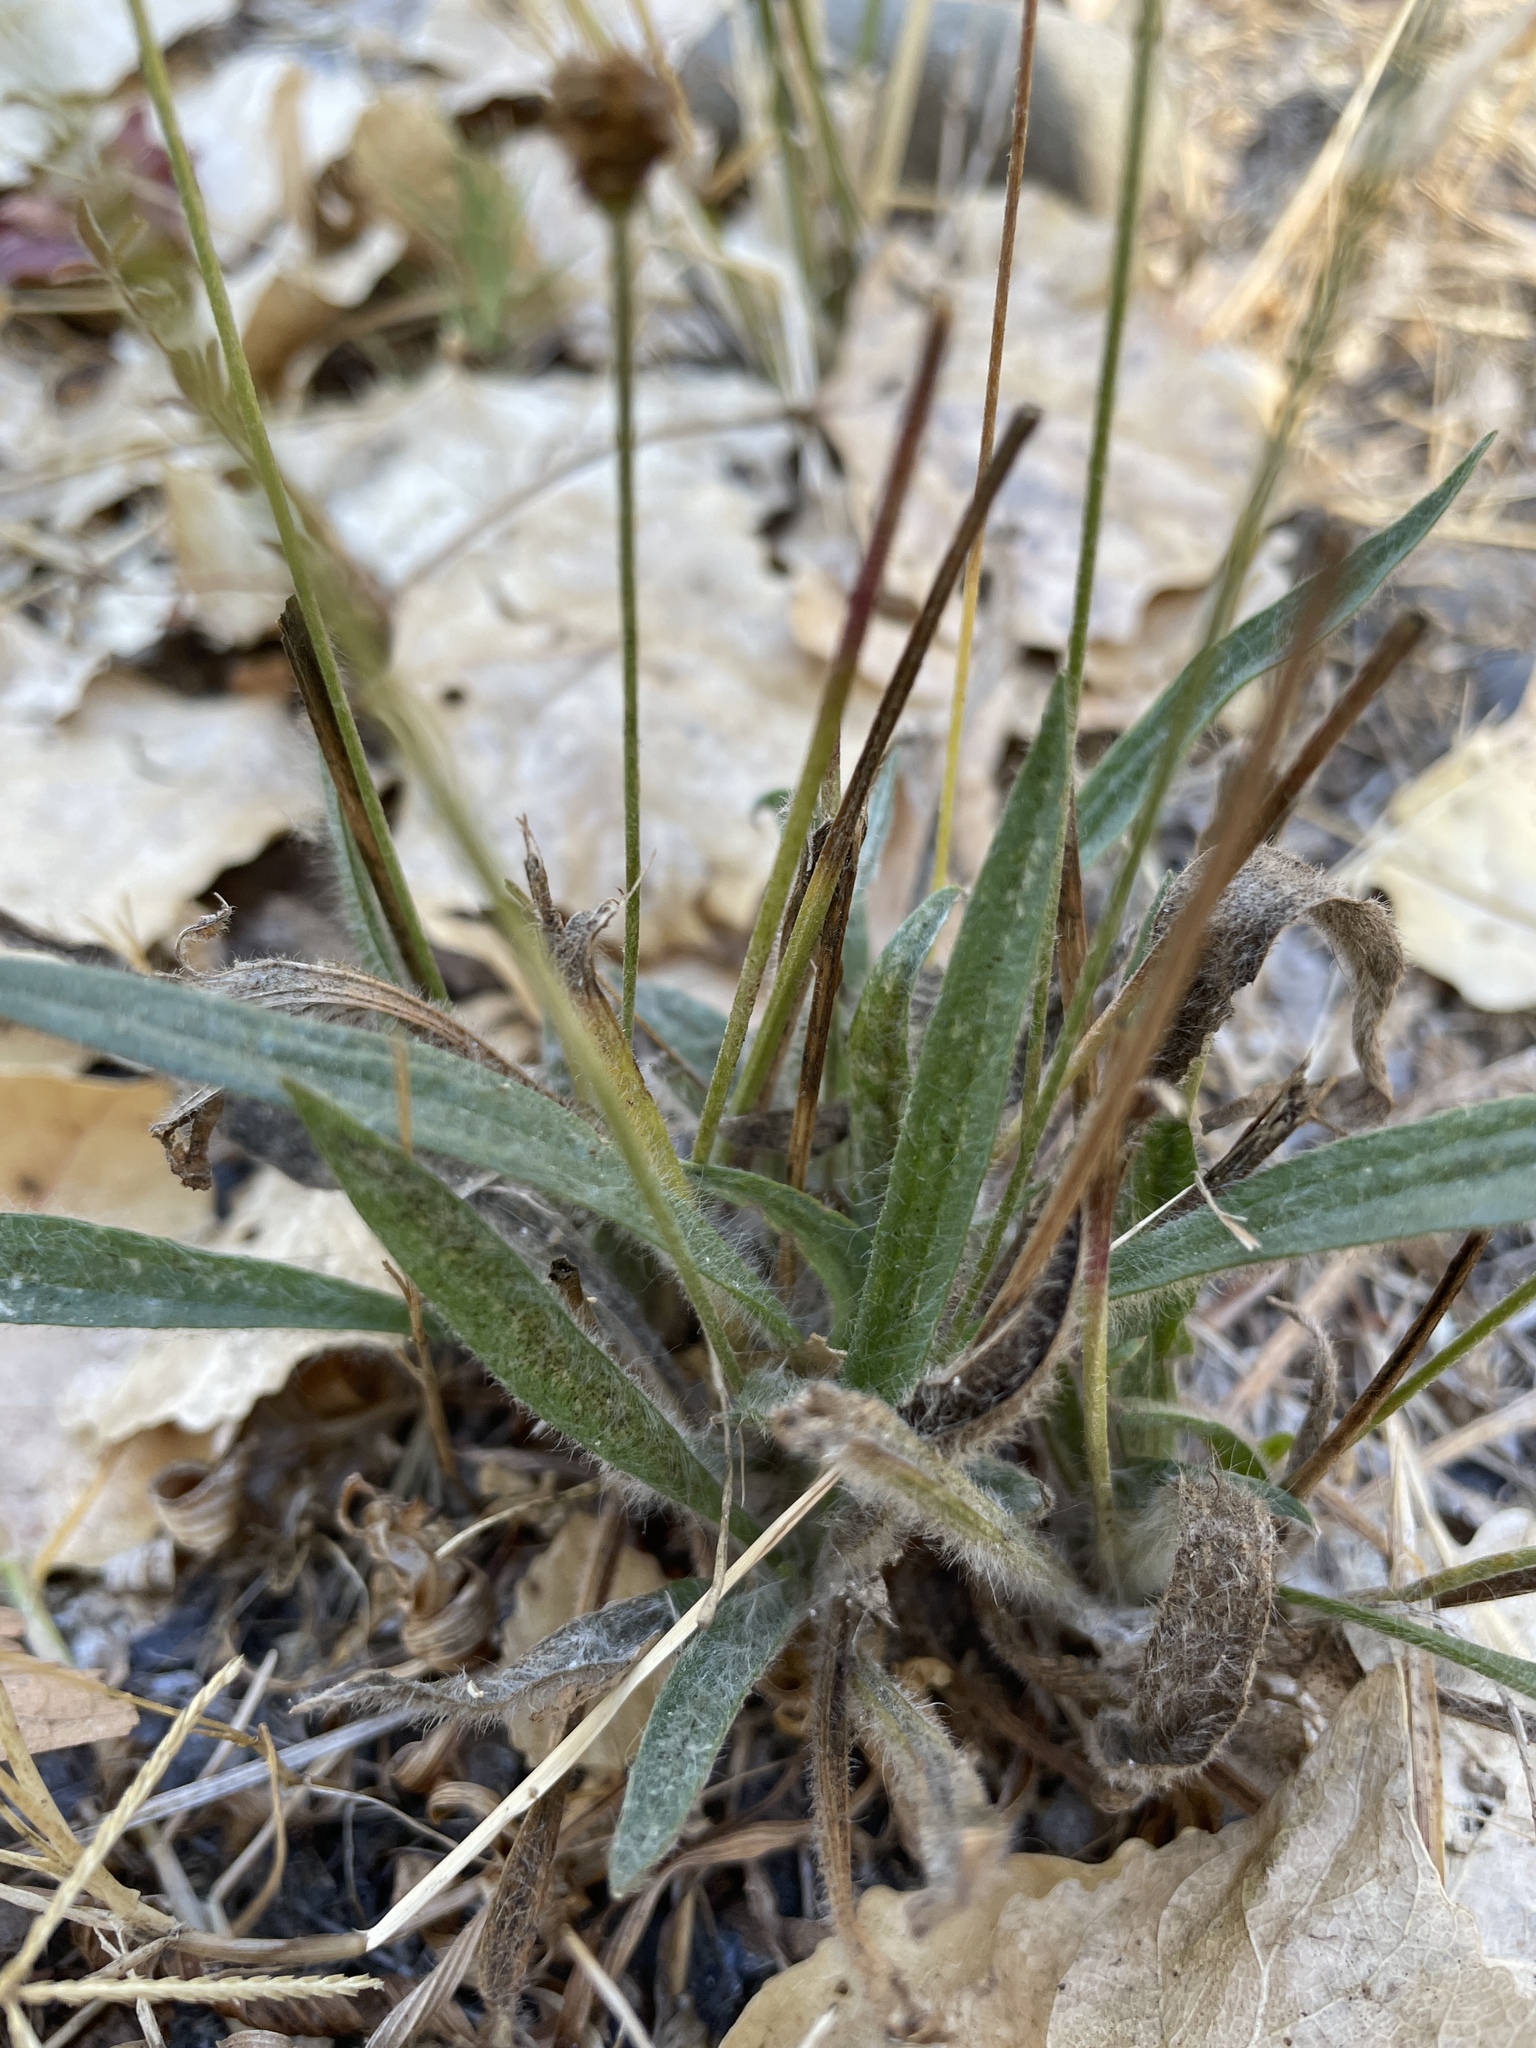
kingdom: Plantae
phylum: Tracheophyta
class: Magnoliopsida
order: Lamiales
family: Plantaginaceae
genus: Plantago
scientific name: Plantago lanceolata
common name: Ribwort plantain
